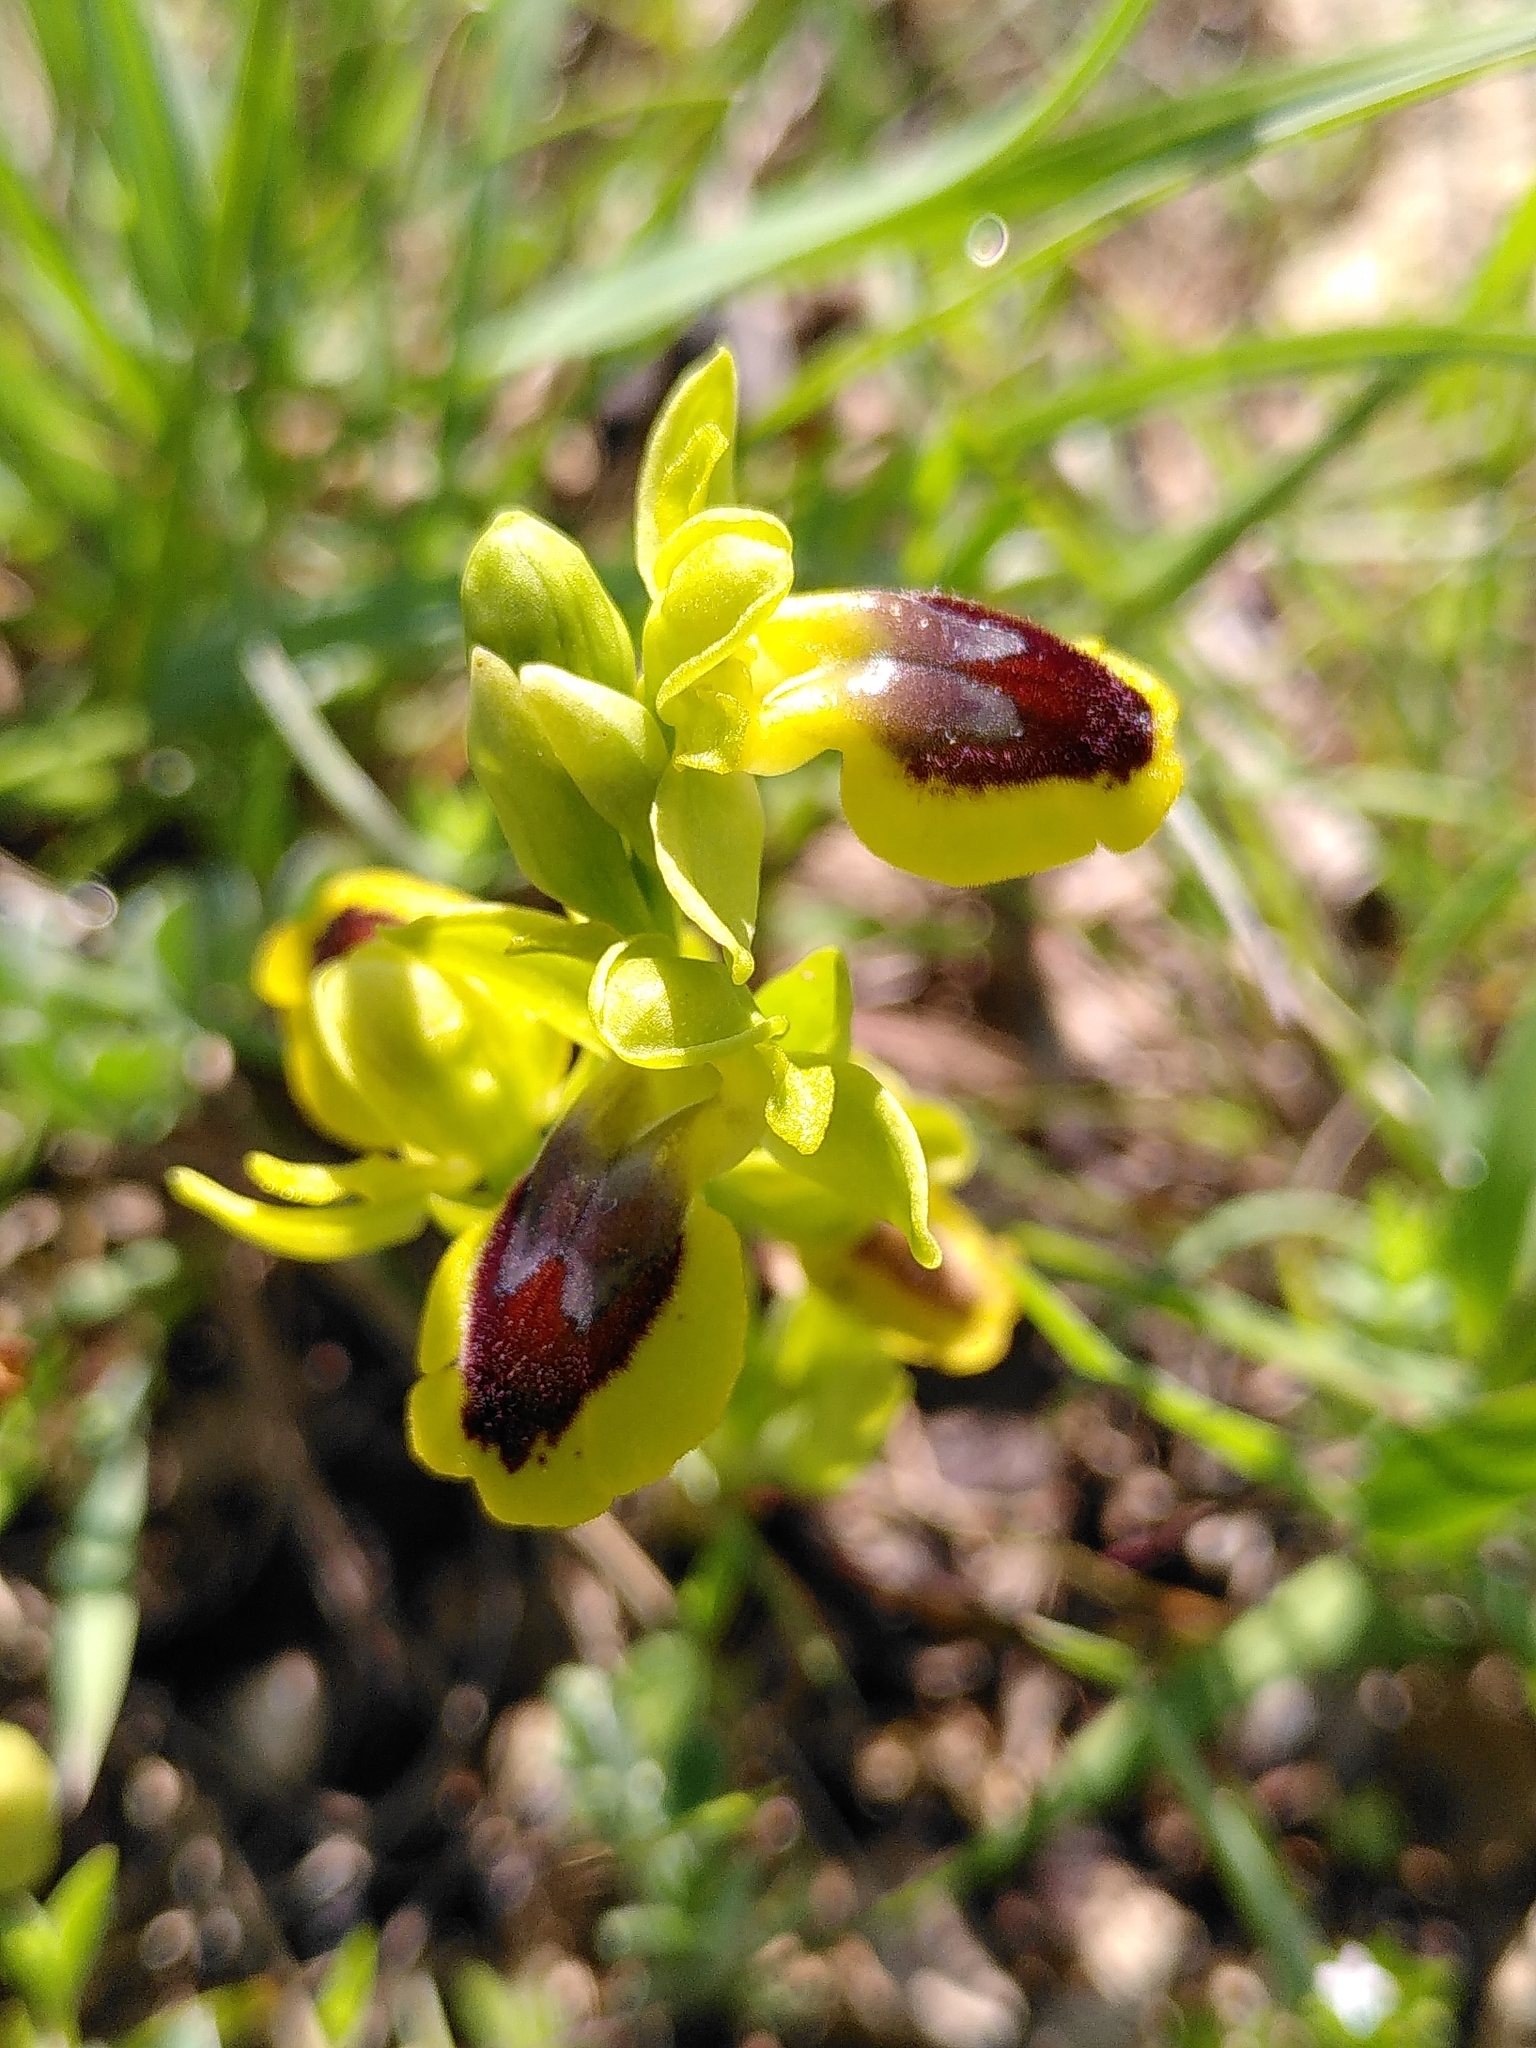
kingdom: Plantae
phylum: Tracheophyta
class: Liliopsida
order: Asparagales
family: Orchidaceae
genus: Ophrys
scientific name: Ophrys lutea
